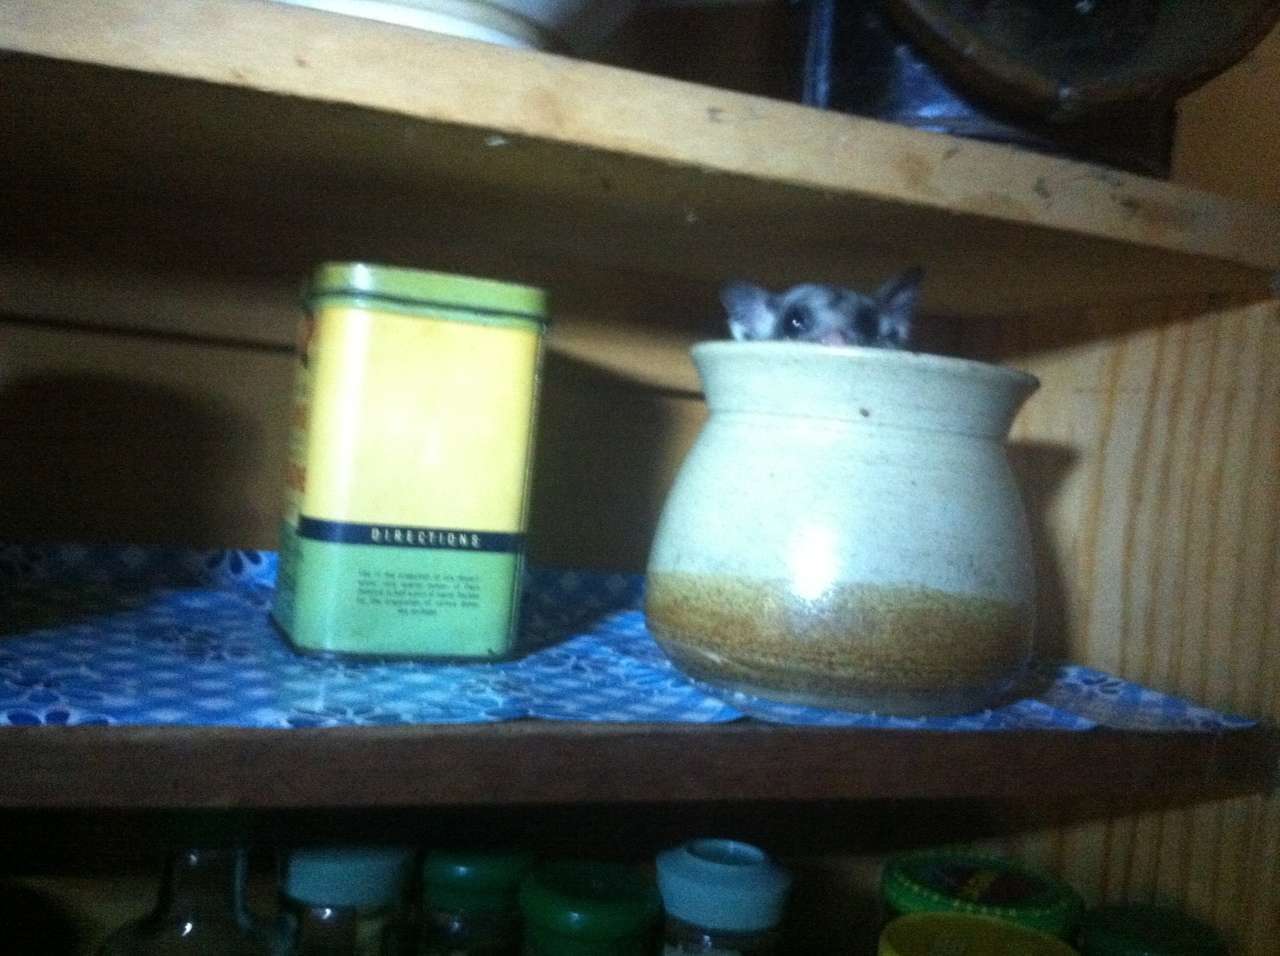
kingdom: Animalia
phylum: Chordata
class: Mammalia
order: Diprotodontia
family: Petauridae
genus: Petaurus
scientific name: Petaurus breviceps
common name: Sugar glider
